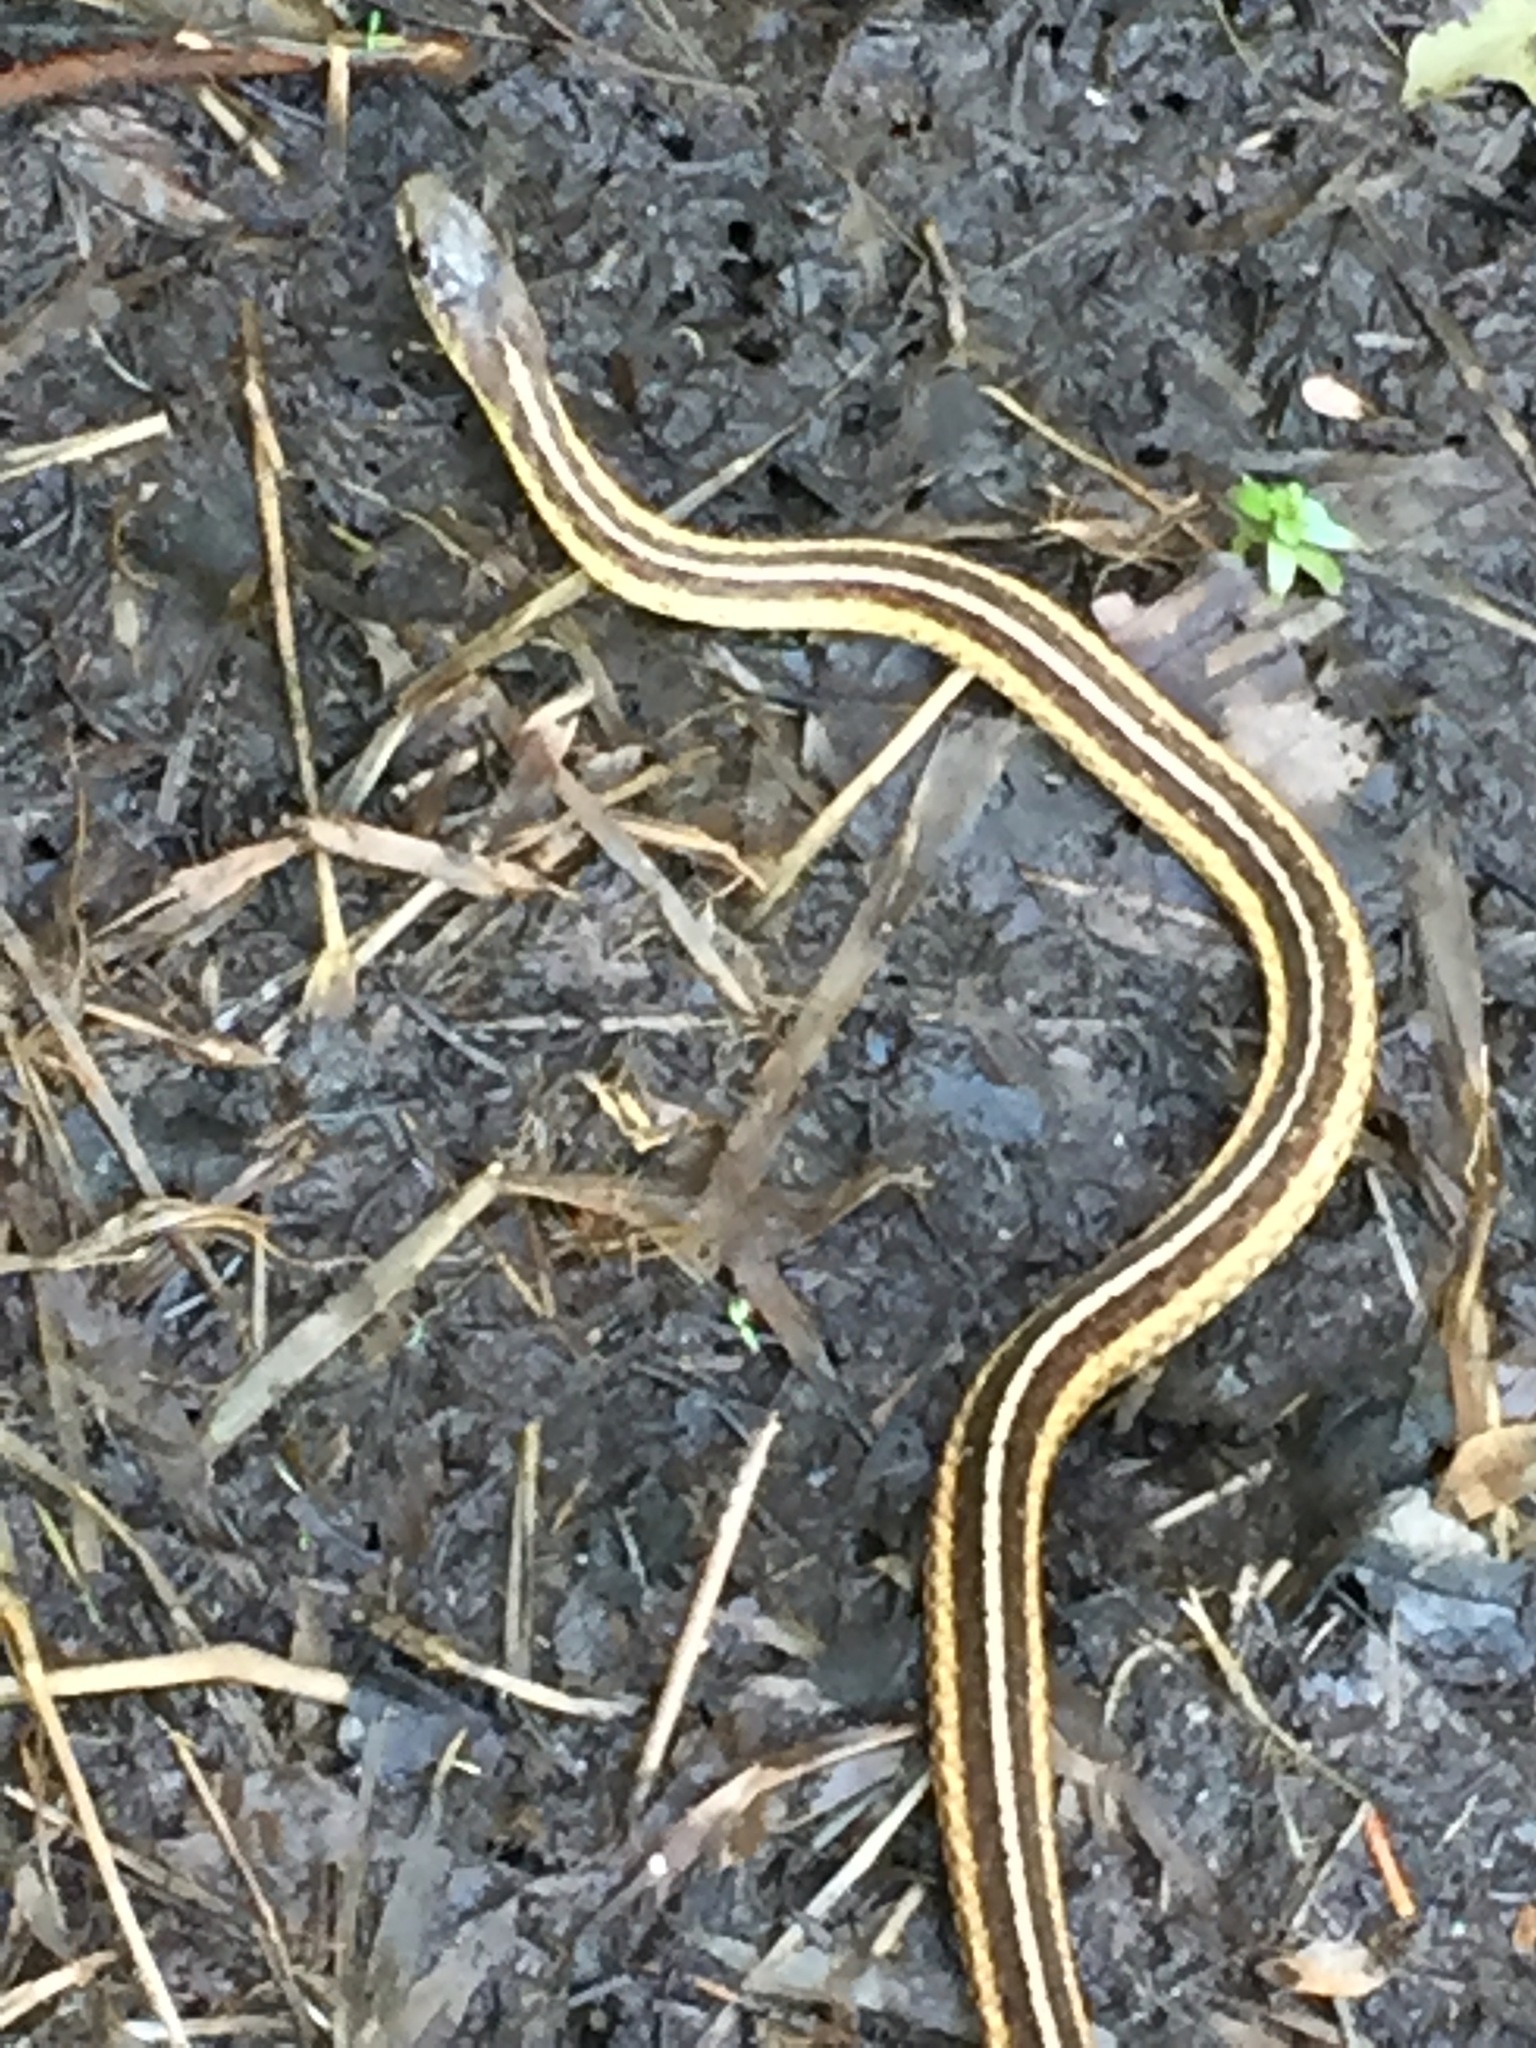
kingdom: Animalia
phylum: Chordata
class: Squamata
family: Colubridae
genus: Thamnophis
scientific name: Thamnophis sirtalis
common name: Common garter snake
